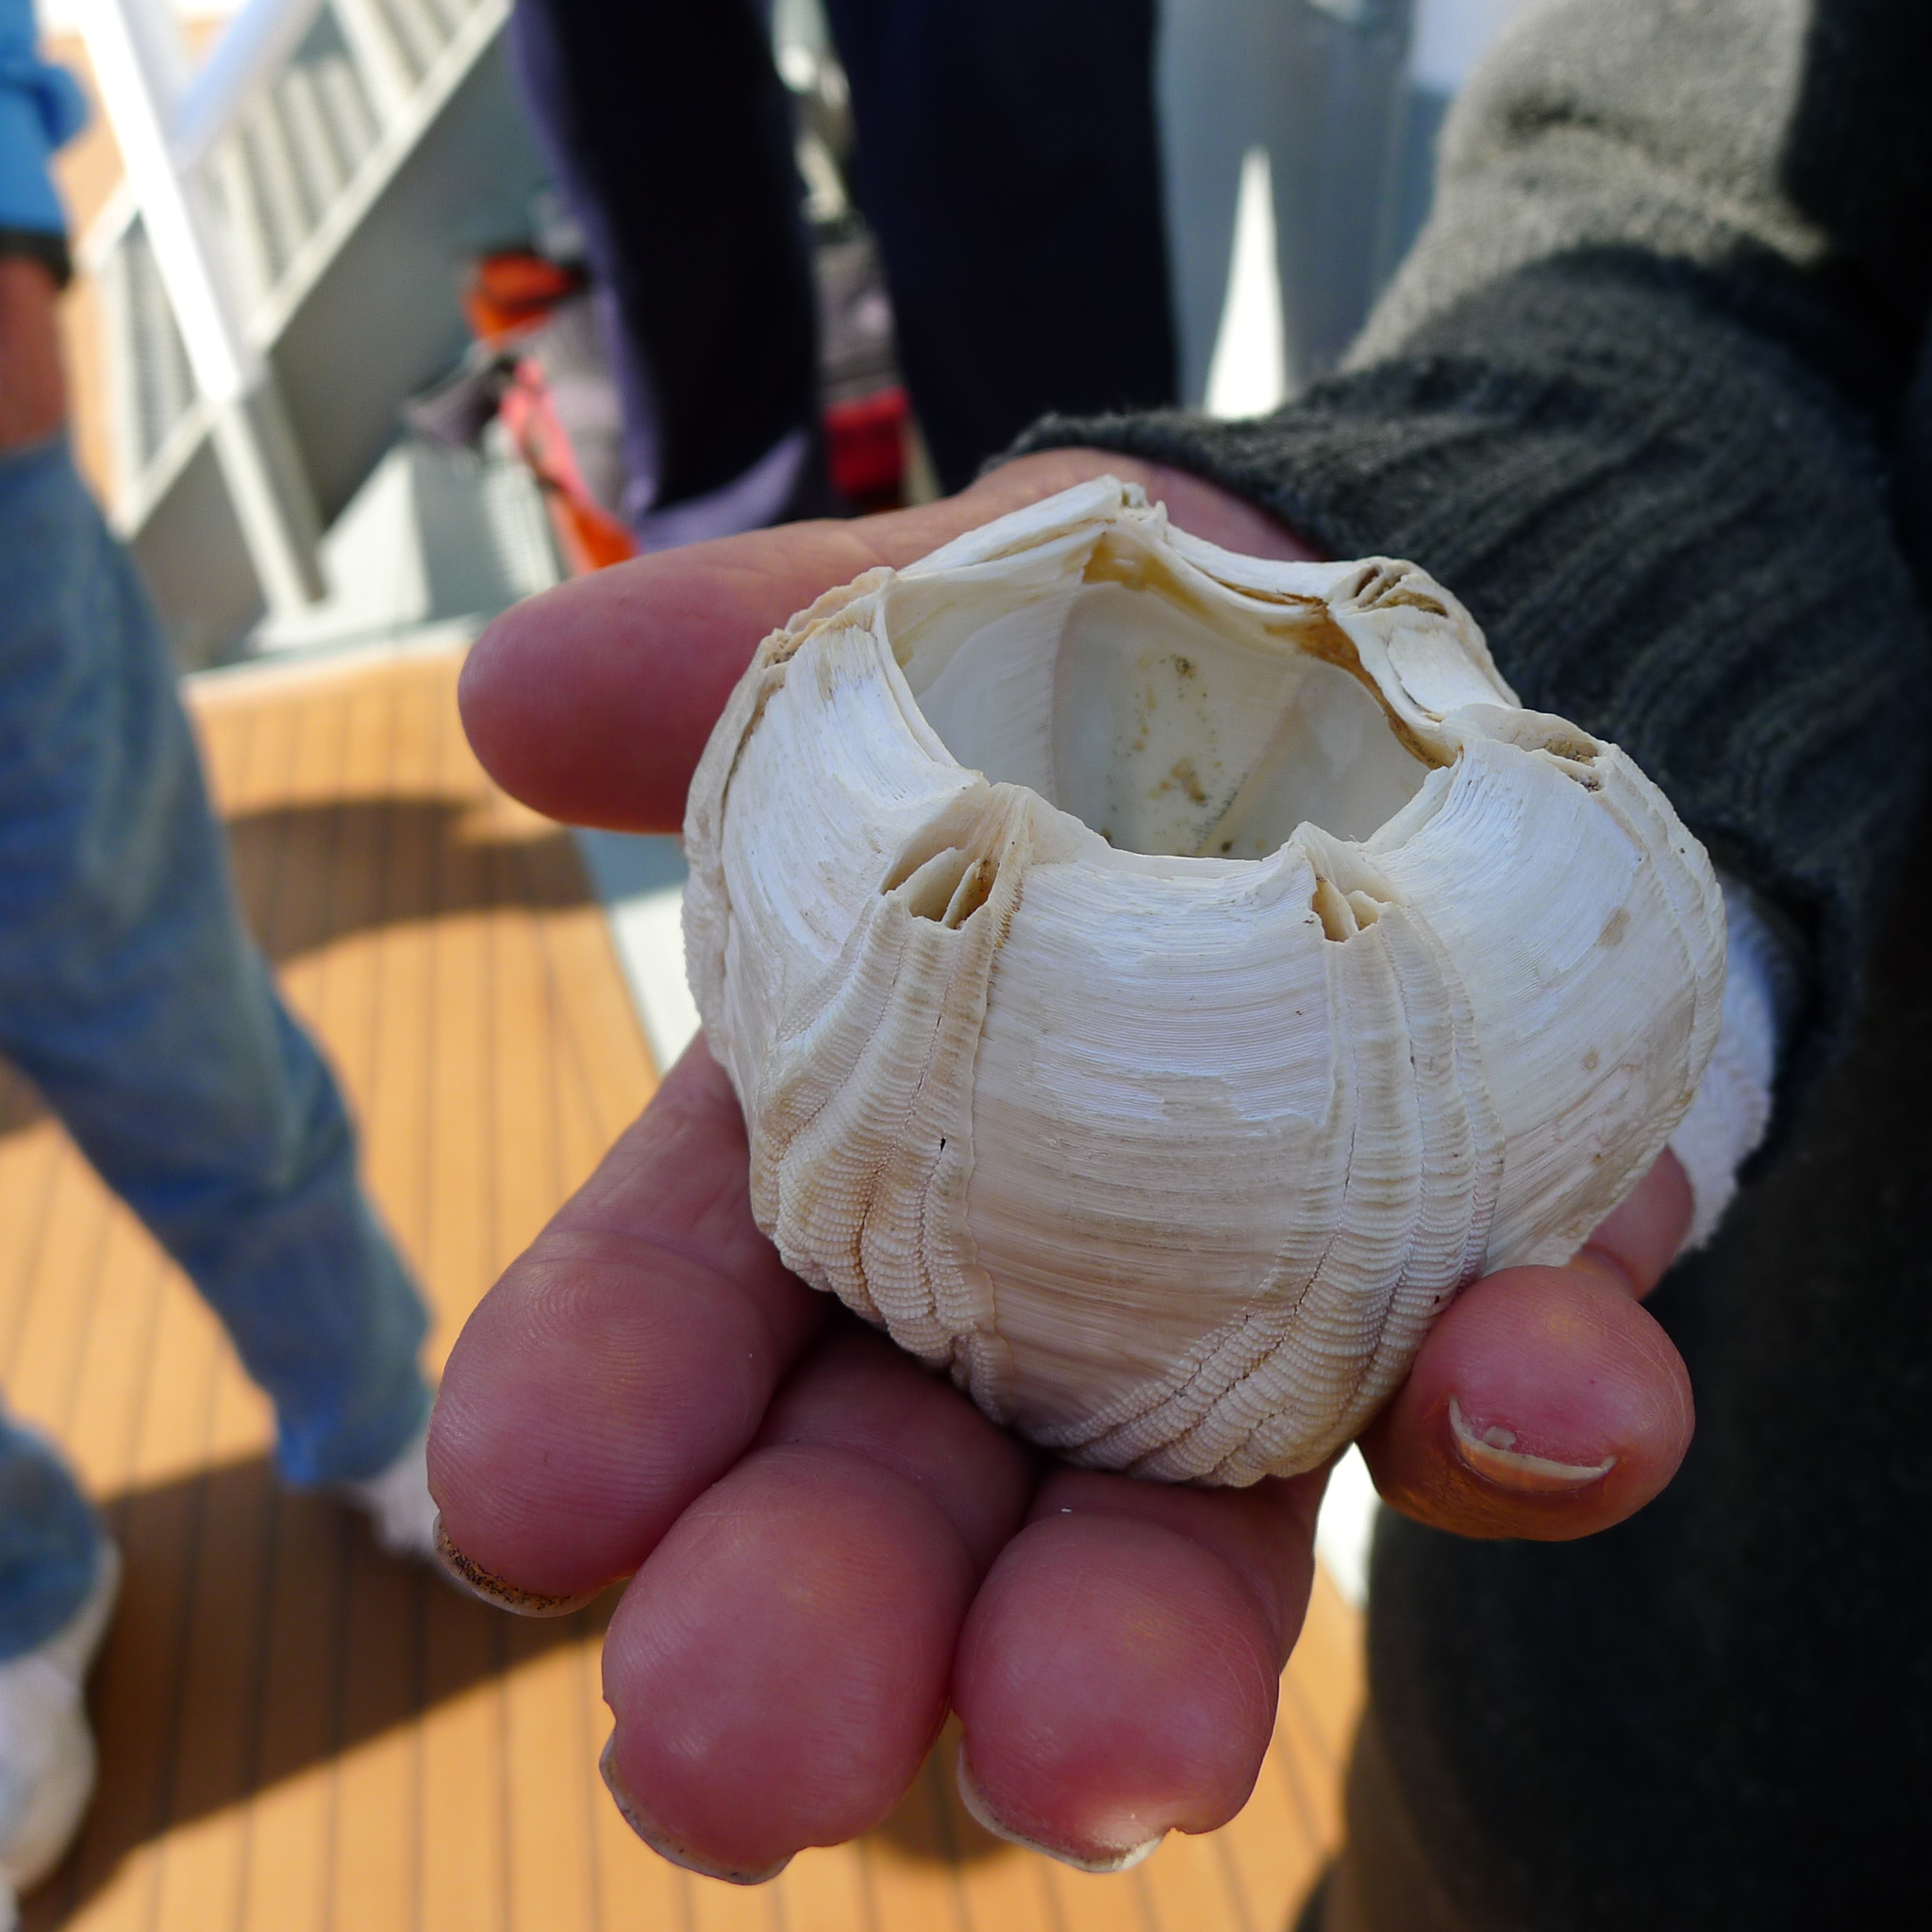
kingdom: Animalia
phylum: Arthropoda
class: Maxillopoda
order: Sessilia
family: Coronulidae
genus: Coronula
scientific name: Coronula diadema
